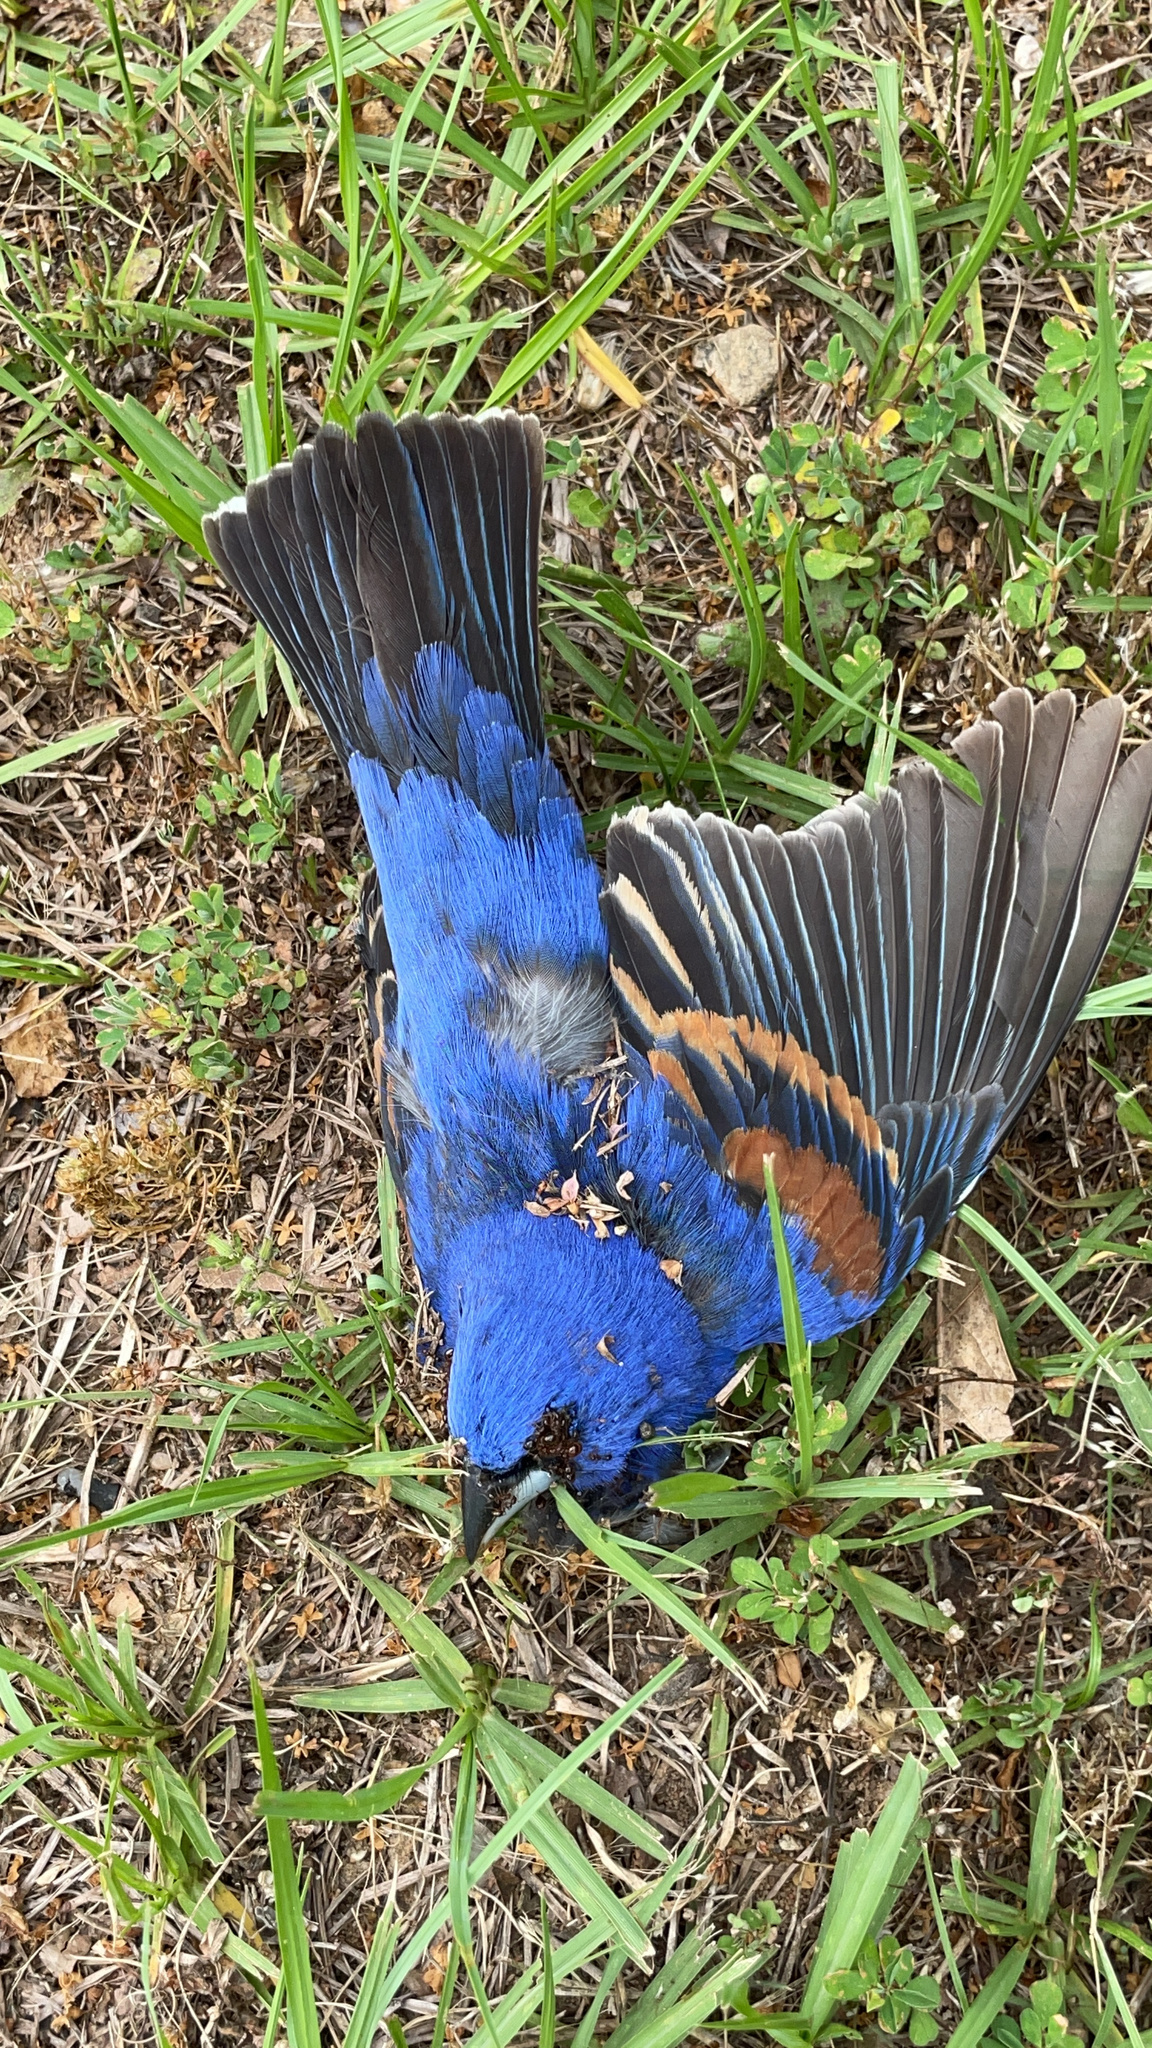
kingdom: Animalia
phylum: Chordata
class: Aves
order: Passeriformes
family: Cardinalidae
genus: Passerina
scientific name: Passerina caerulea
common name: Blue grosbeak
